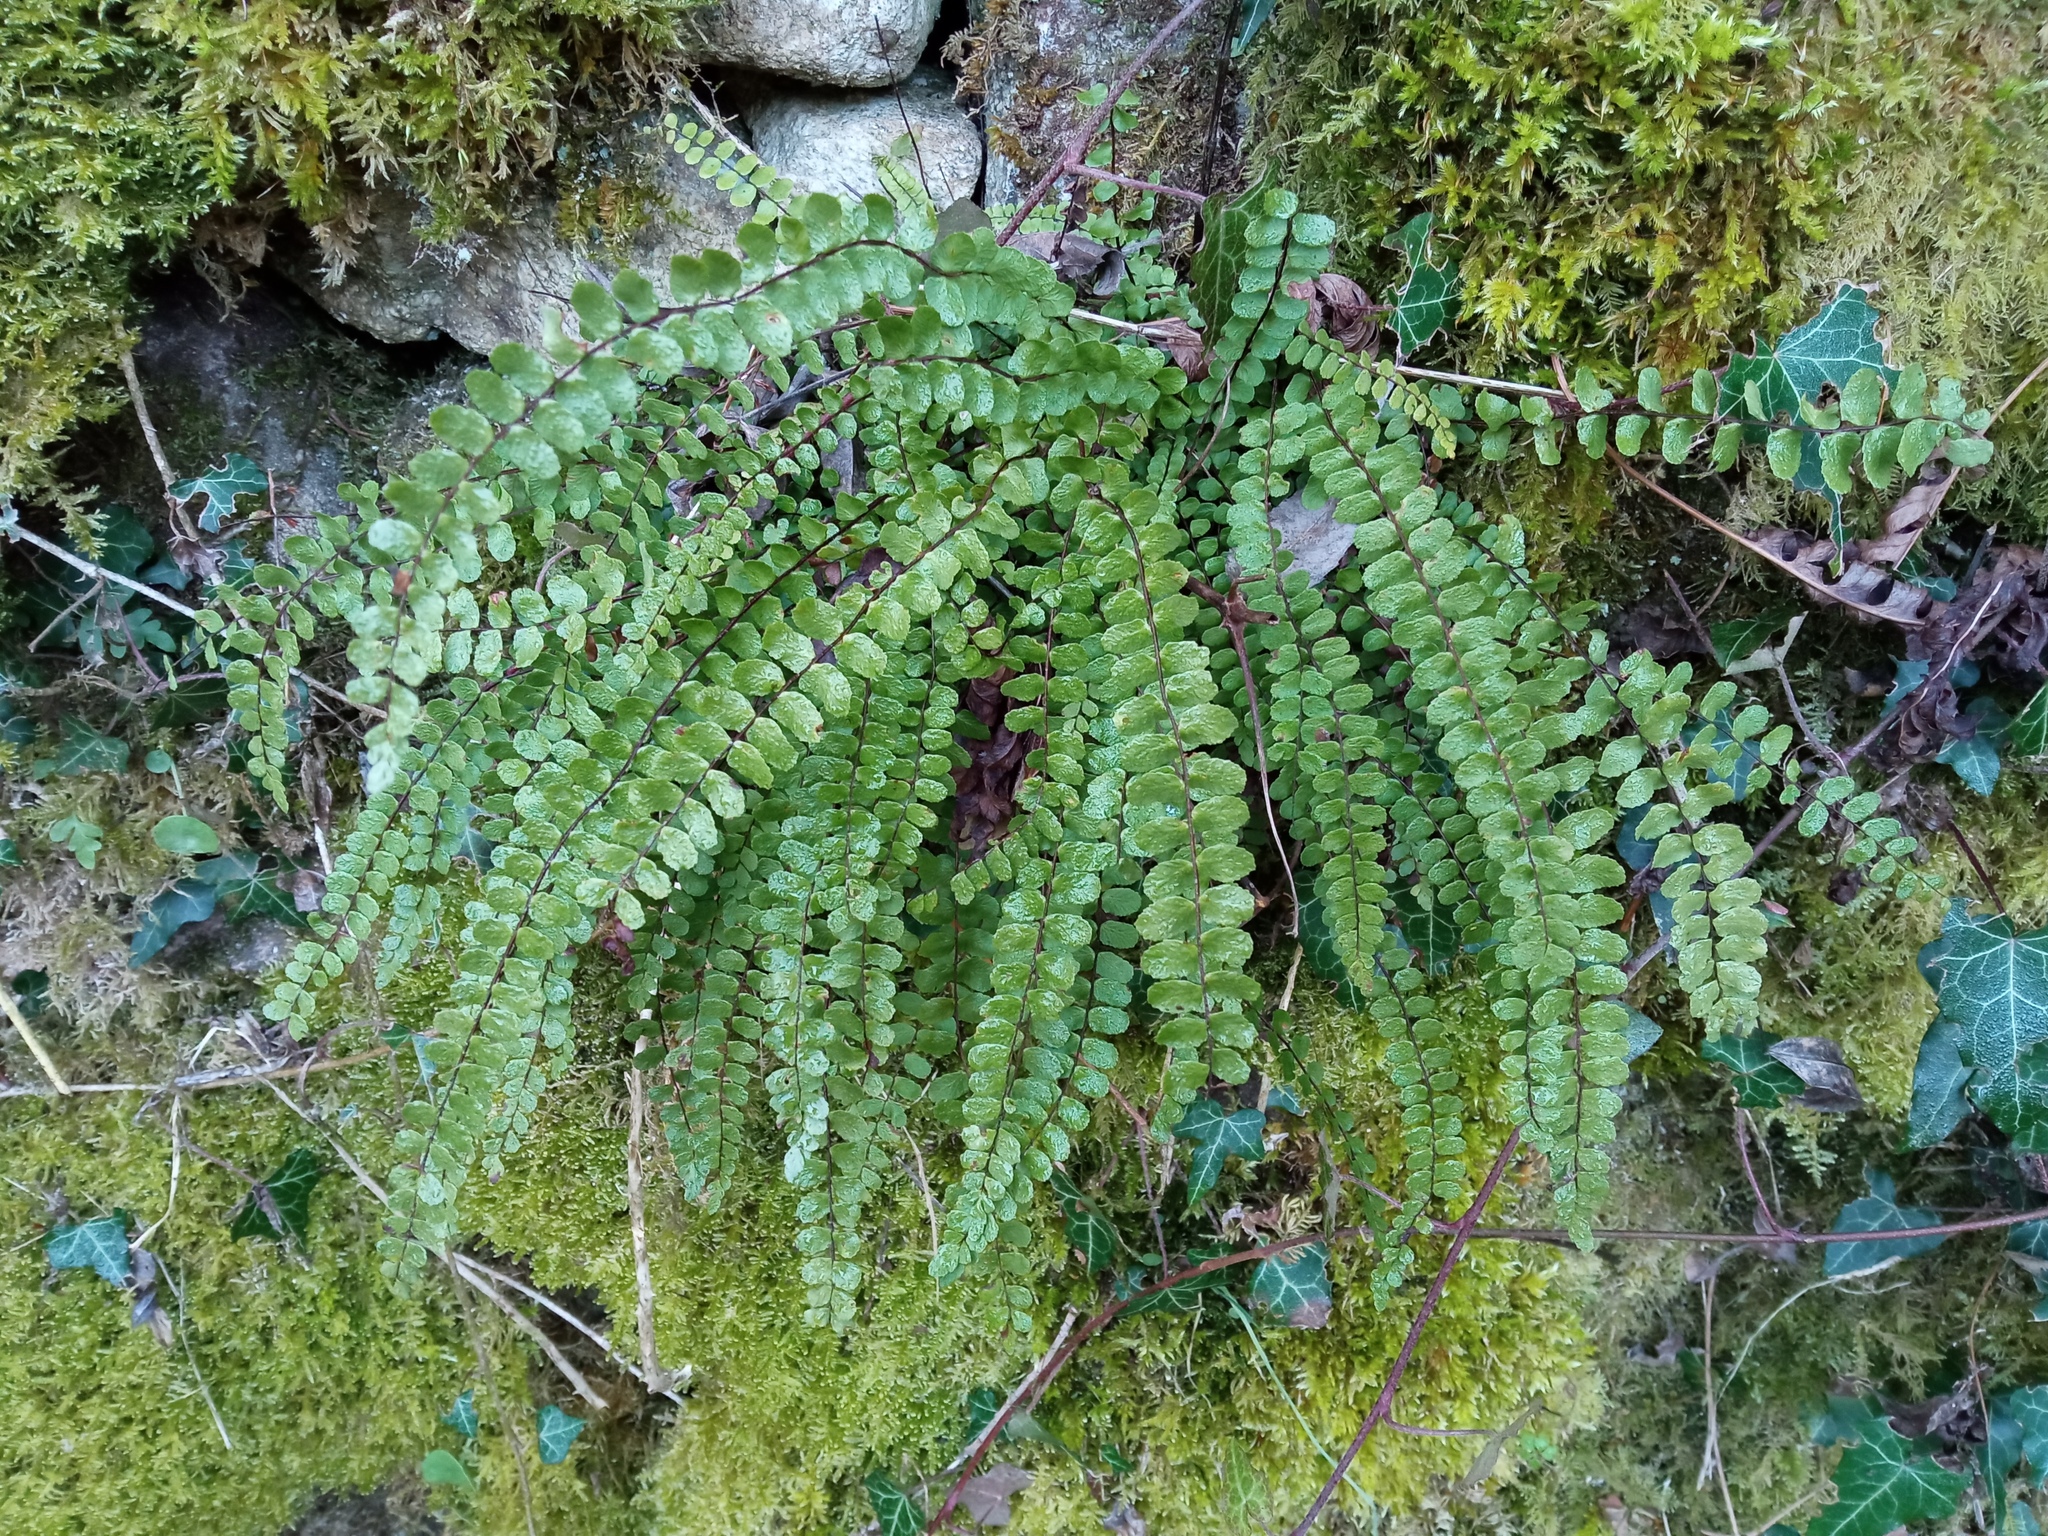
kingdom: Plantae
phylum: Tracheophyta
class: Polypodiopsida
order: Polypodiales
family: Aspleniaceae
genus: Asplenium
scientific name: Asplenium quadrivalens
